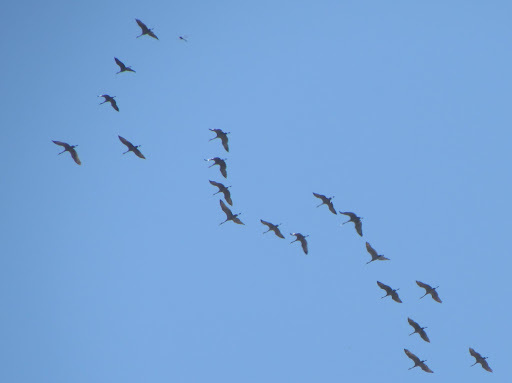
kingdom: Animalia
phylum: Chordata
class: Aves
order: Pelecaniformes
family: Threskiornithidae
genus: Plegadis
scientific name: Plegadis chihi
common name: White-faced ibis
